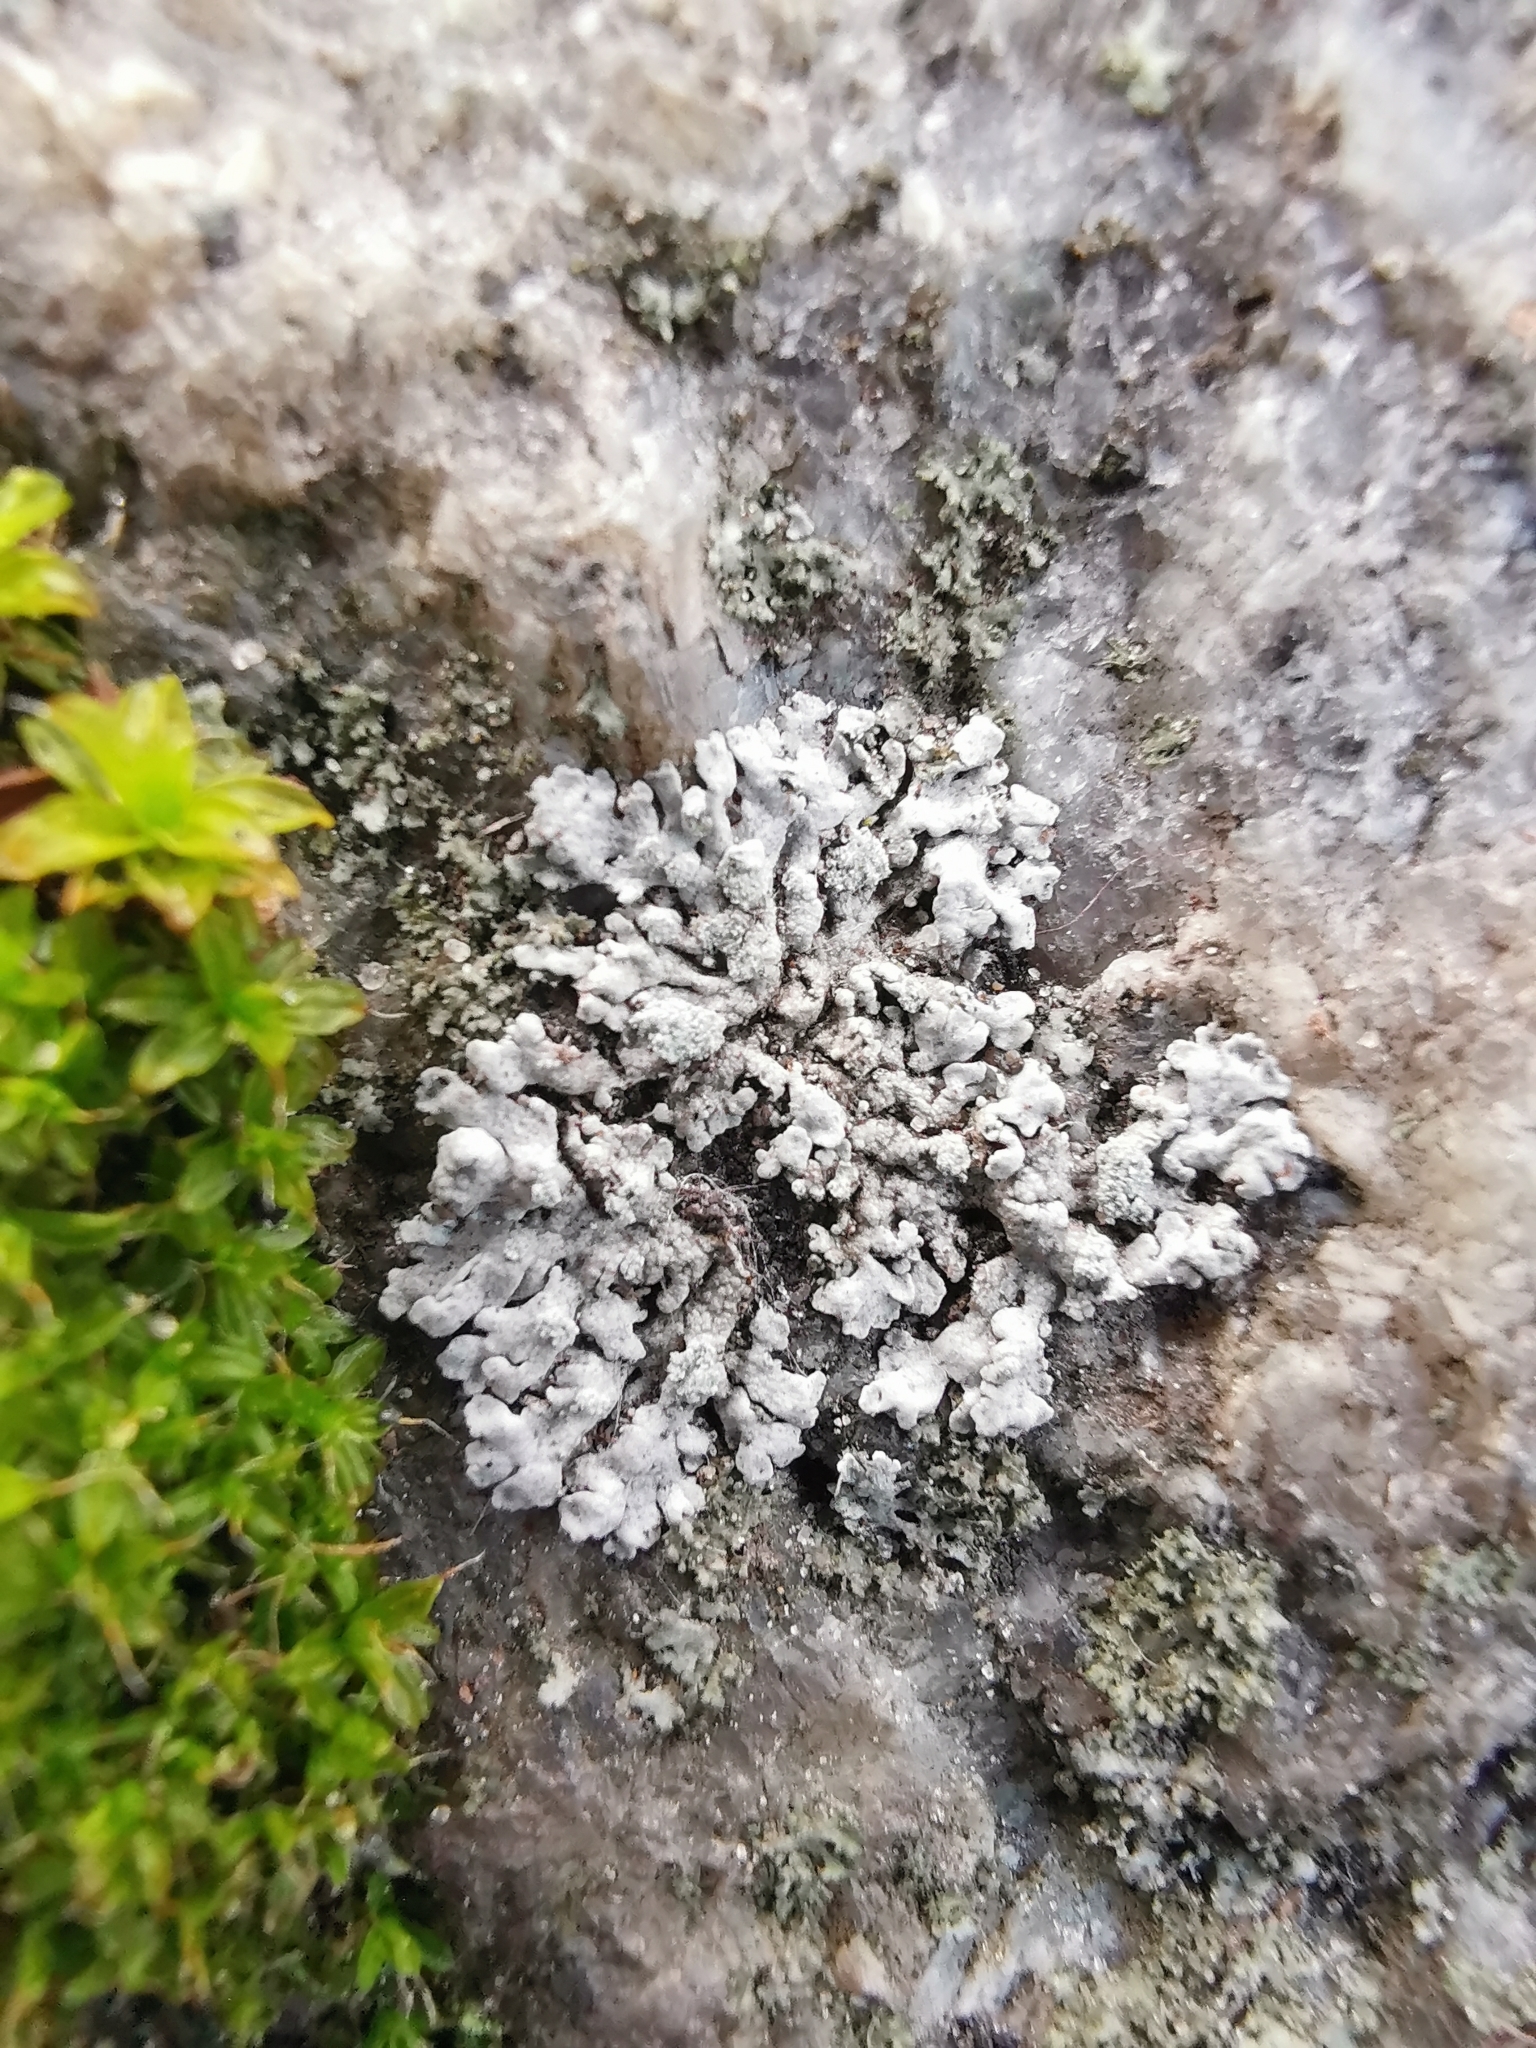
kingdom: Fungi
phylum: Ascomycota
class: Lecanoromycetes
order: Caliciales
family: Physciaceae
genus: Physcia
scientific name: Physcia caesia
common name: Blue-gray rosette lichen
